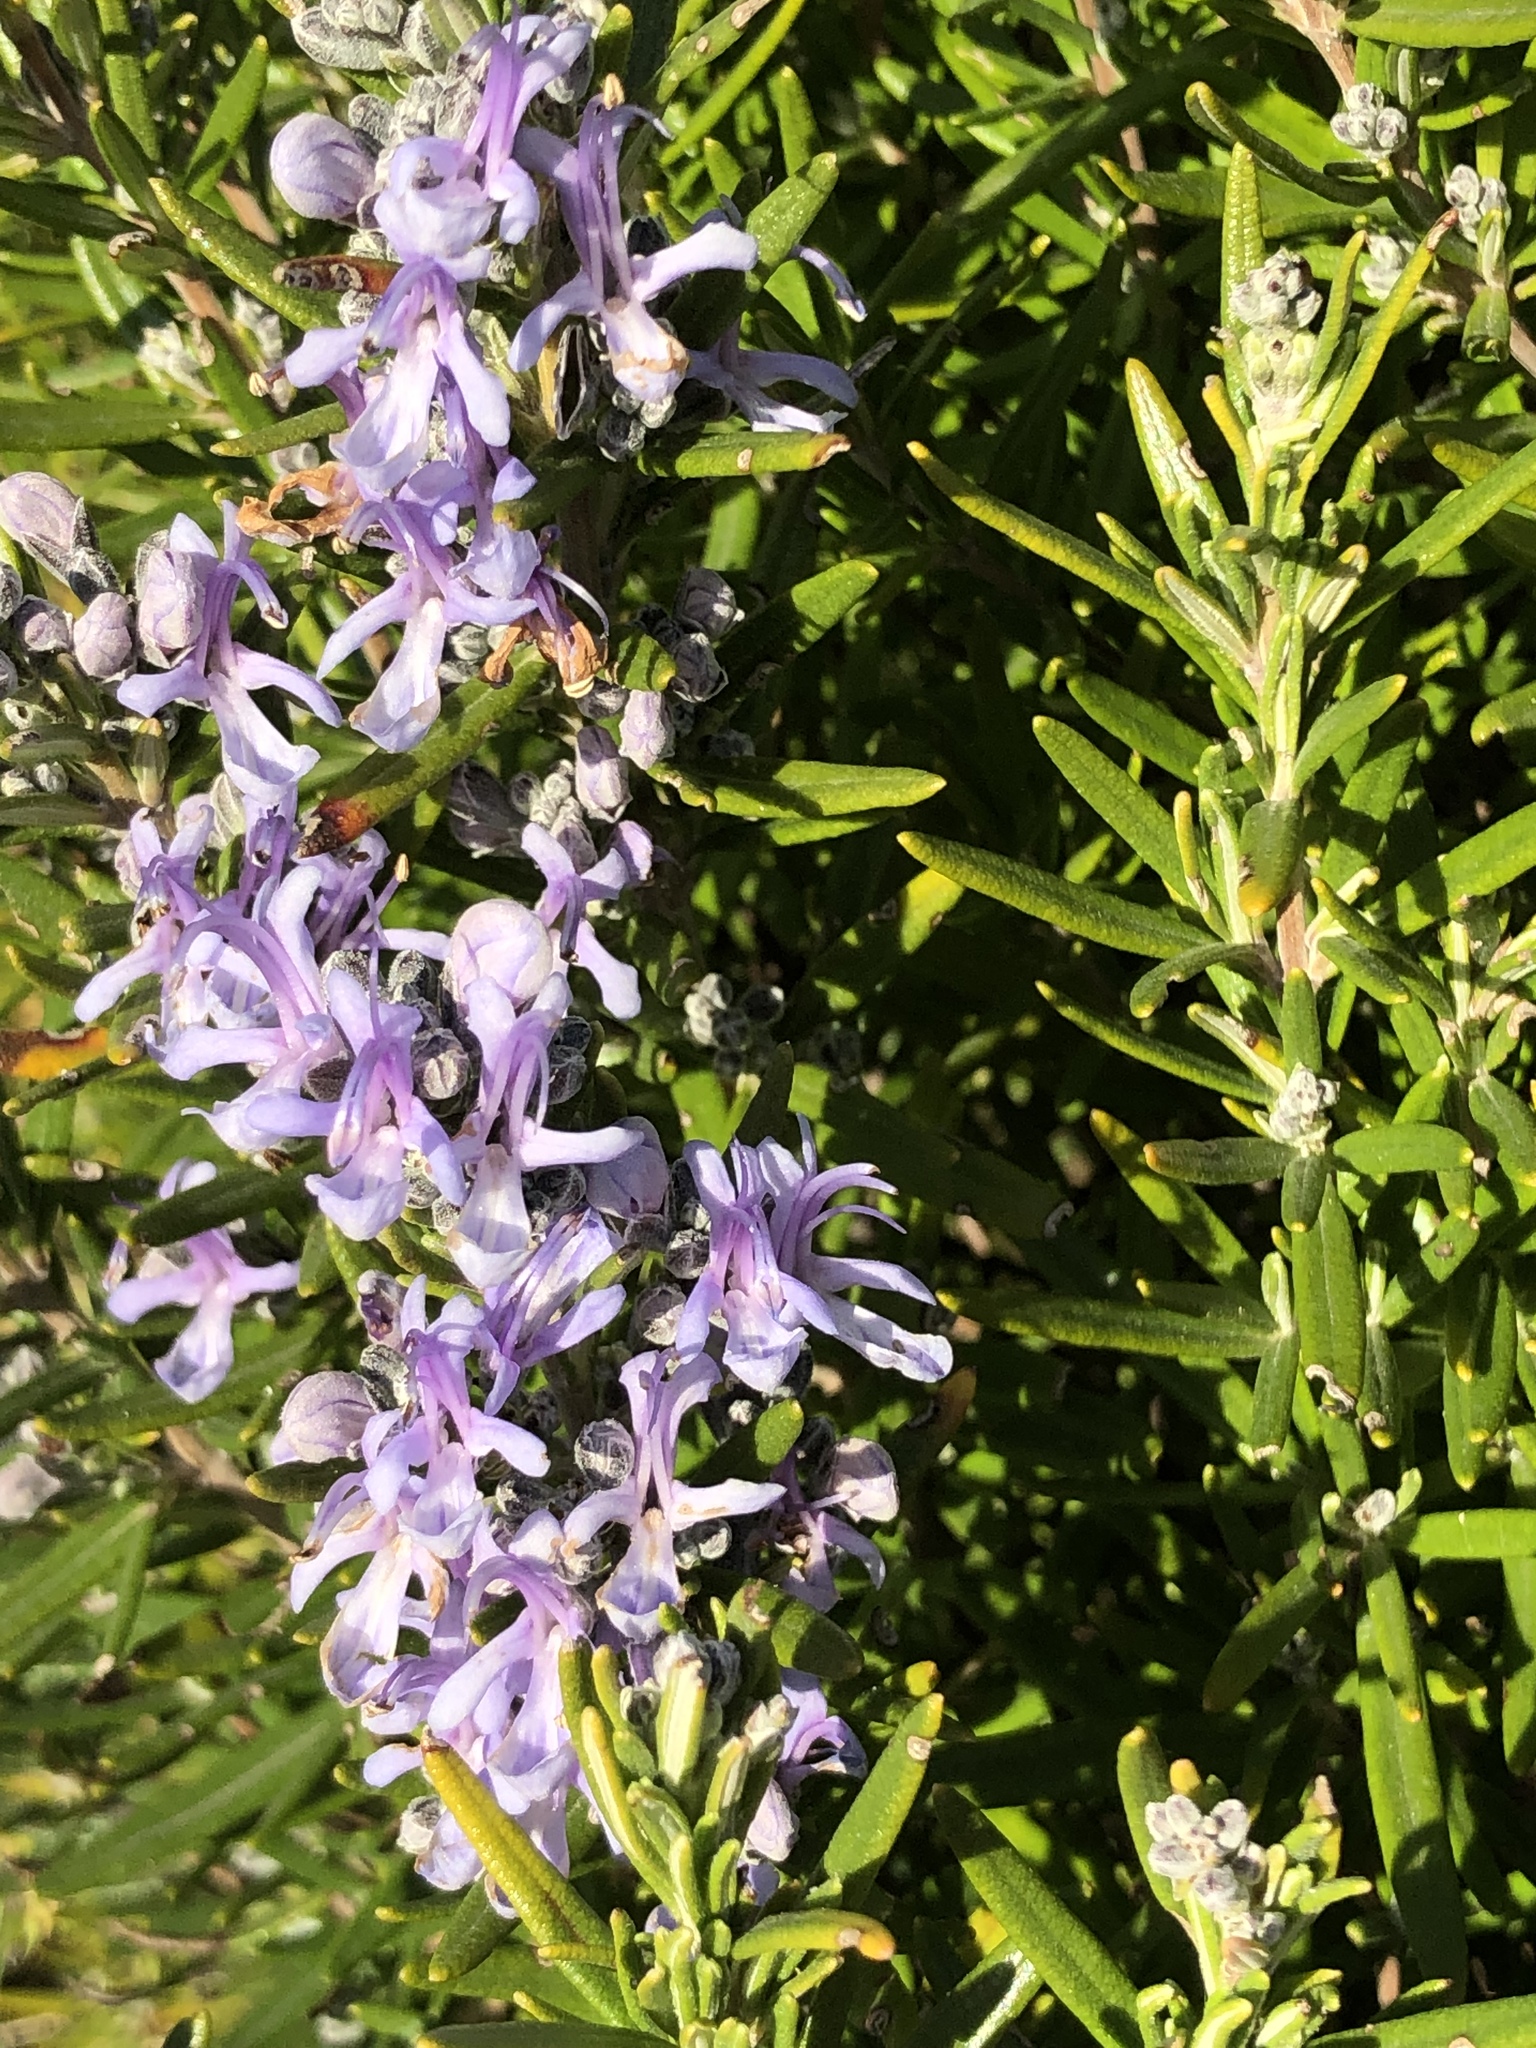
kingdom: Plantae
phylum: Tracheophyta
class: Magnoliopsida
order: Lamiales
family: Lamiaceae
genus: Salvia
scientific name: Salvia rosmarinus
